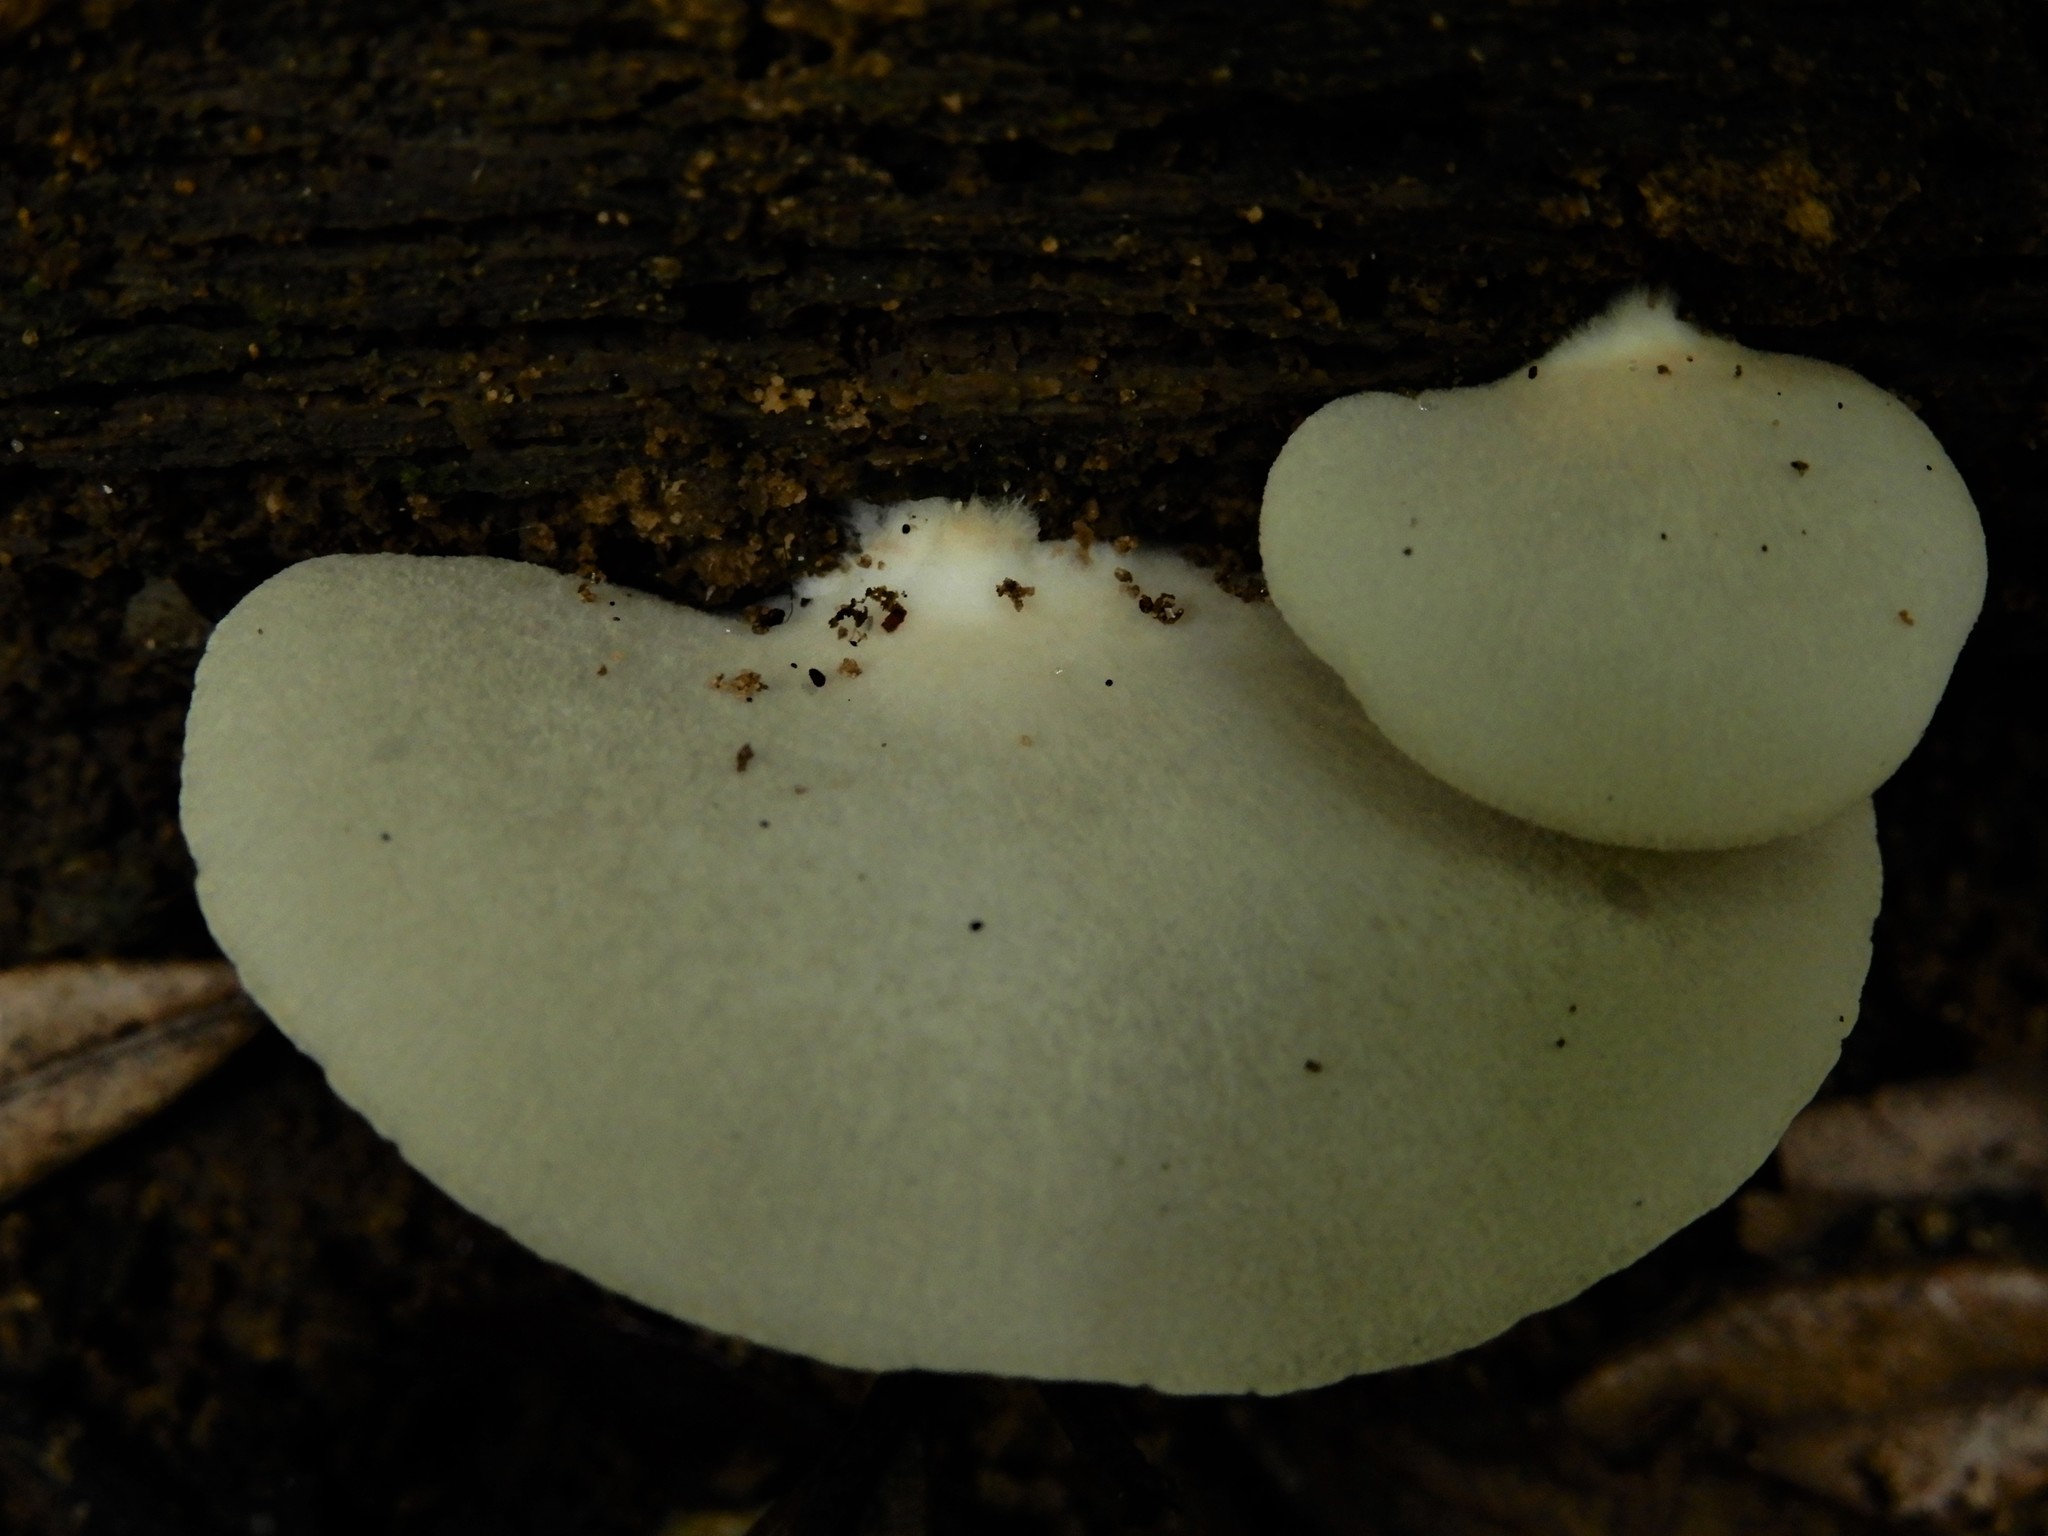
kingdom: Fungi
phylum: Basidiomycota
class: Agaricomycetes
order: Agaricales
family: Tricholomataceae
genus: Conchomyces
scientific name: Conchomyces bursiformis
